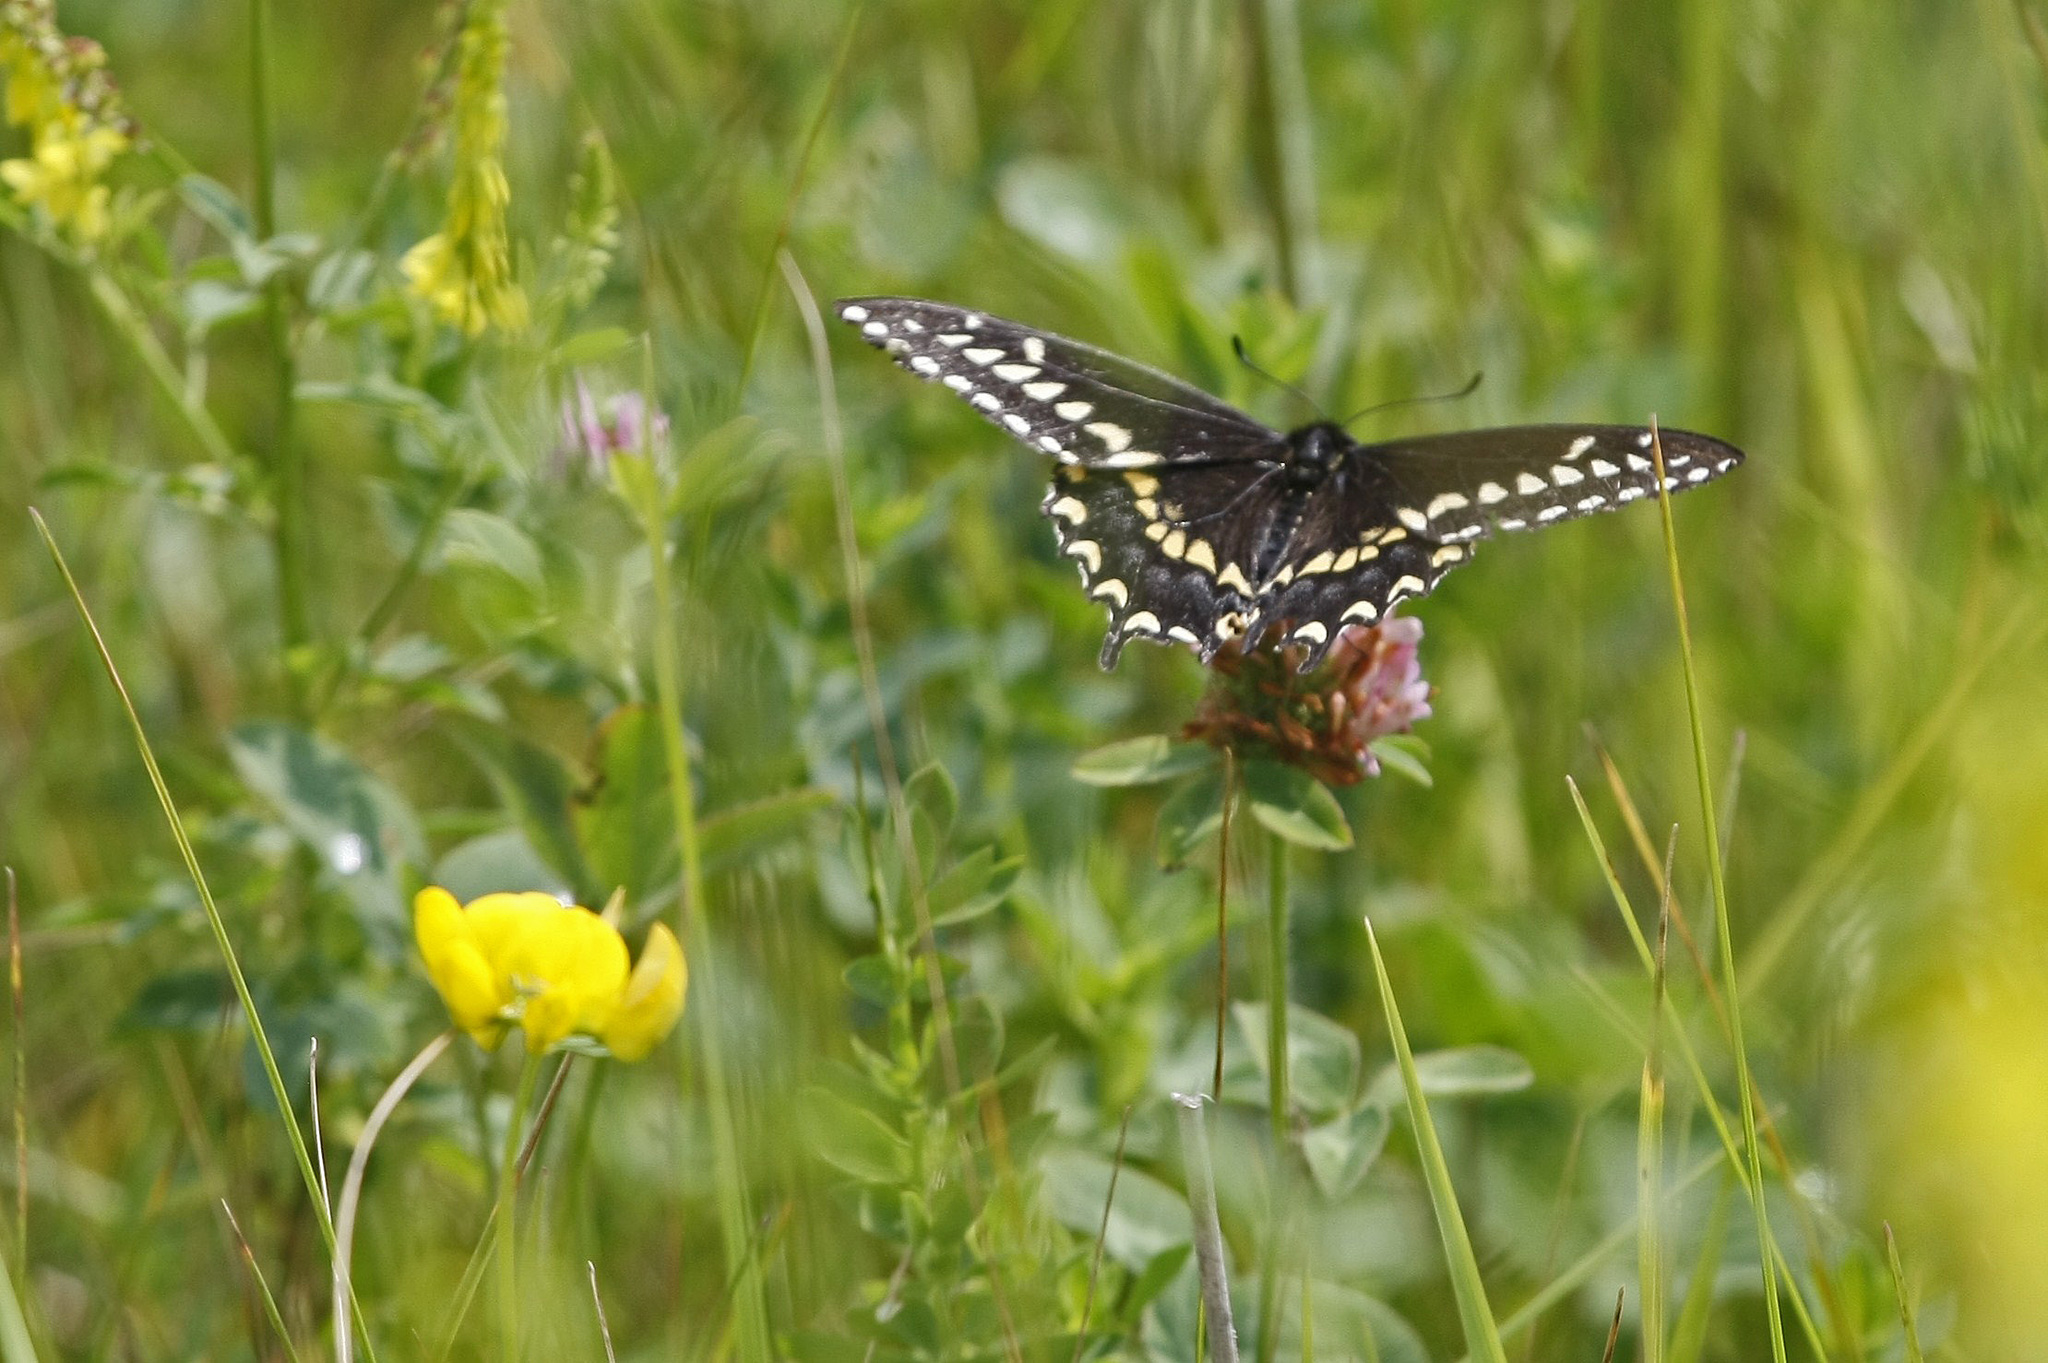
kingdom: Animalia
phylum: Arthropoda
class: Insecta
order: Lepidoptera
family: Papilionidae
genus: Papilio
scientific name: Papilio polyxenes
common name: Black swallowtail
